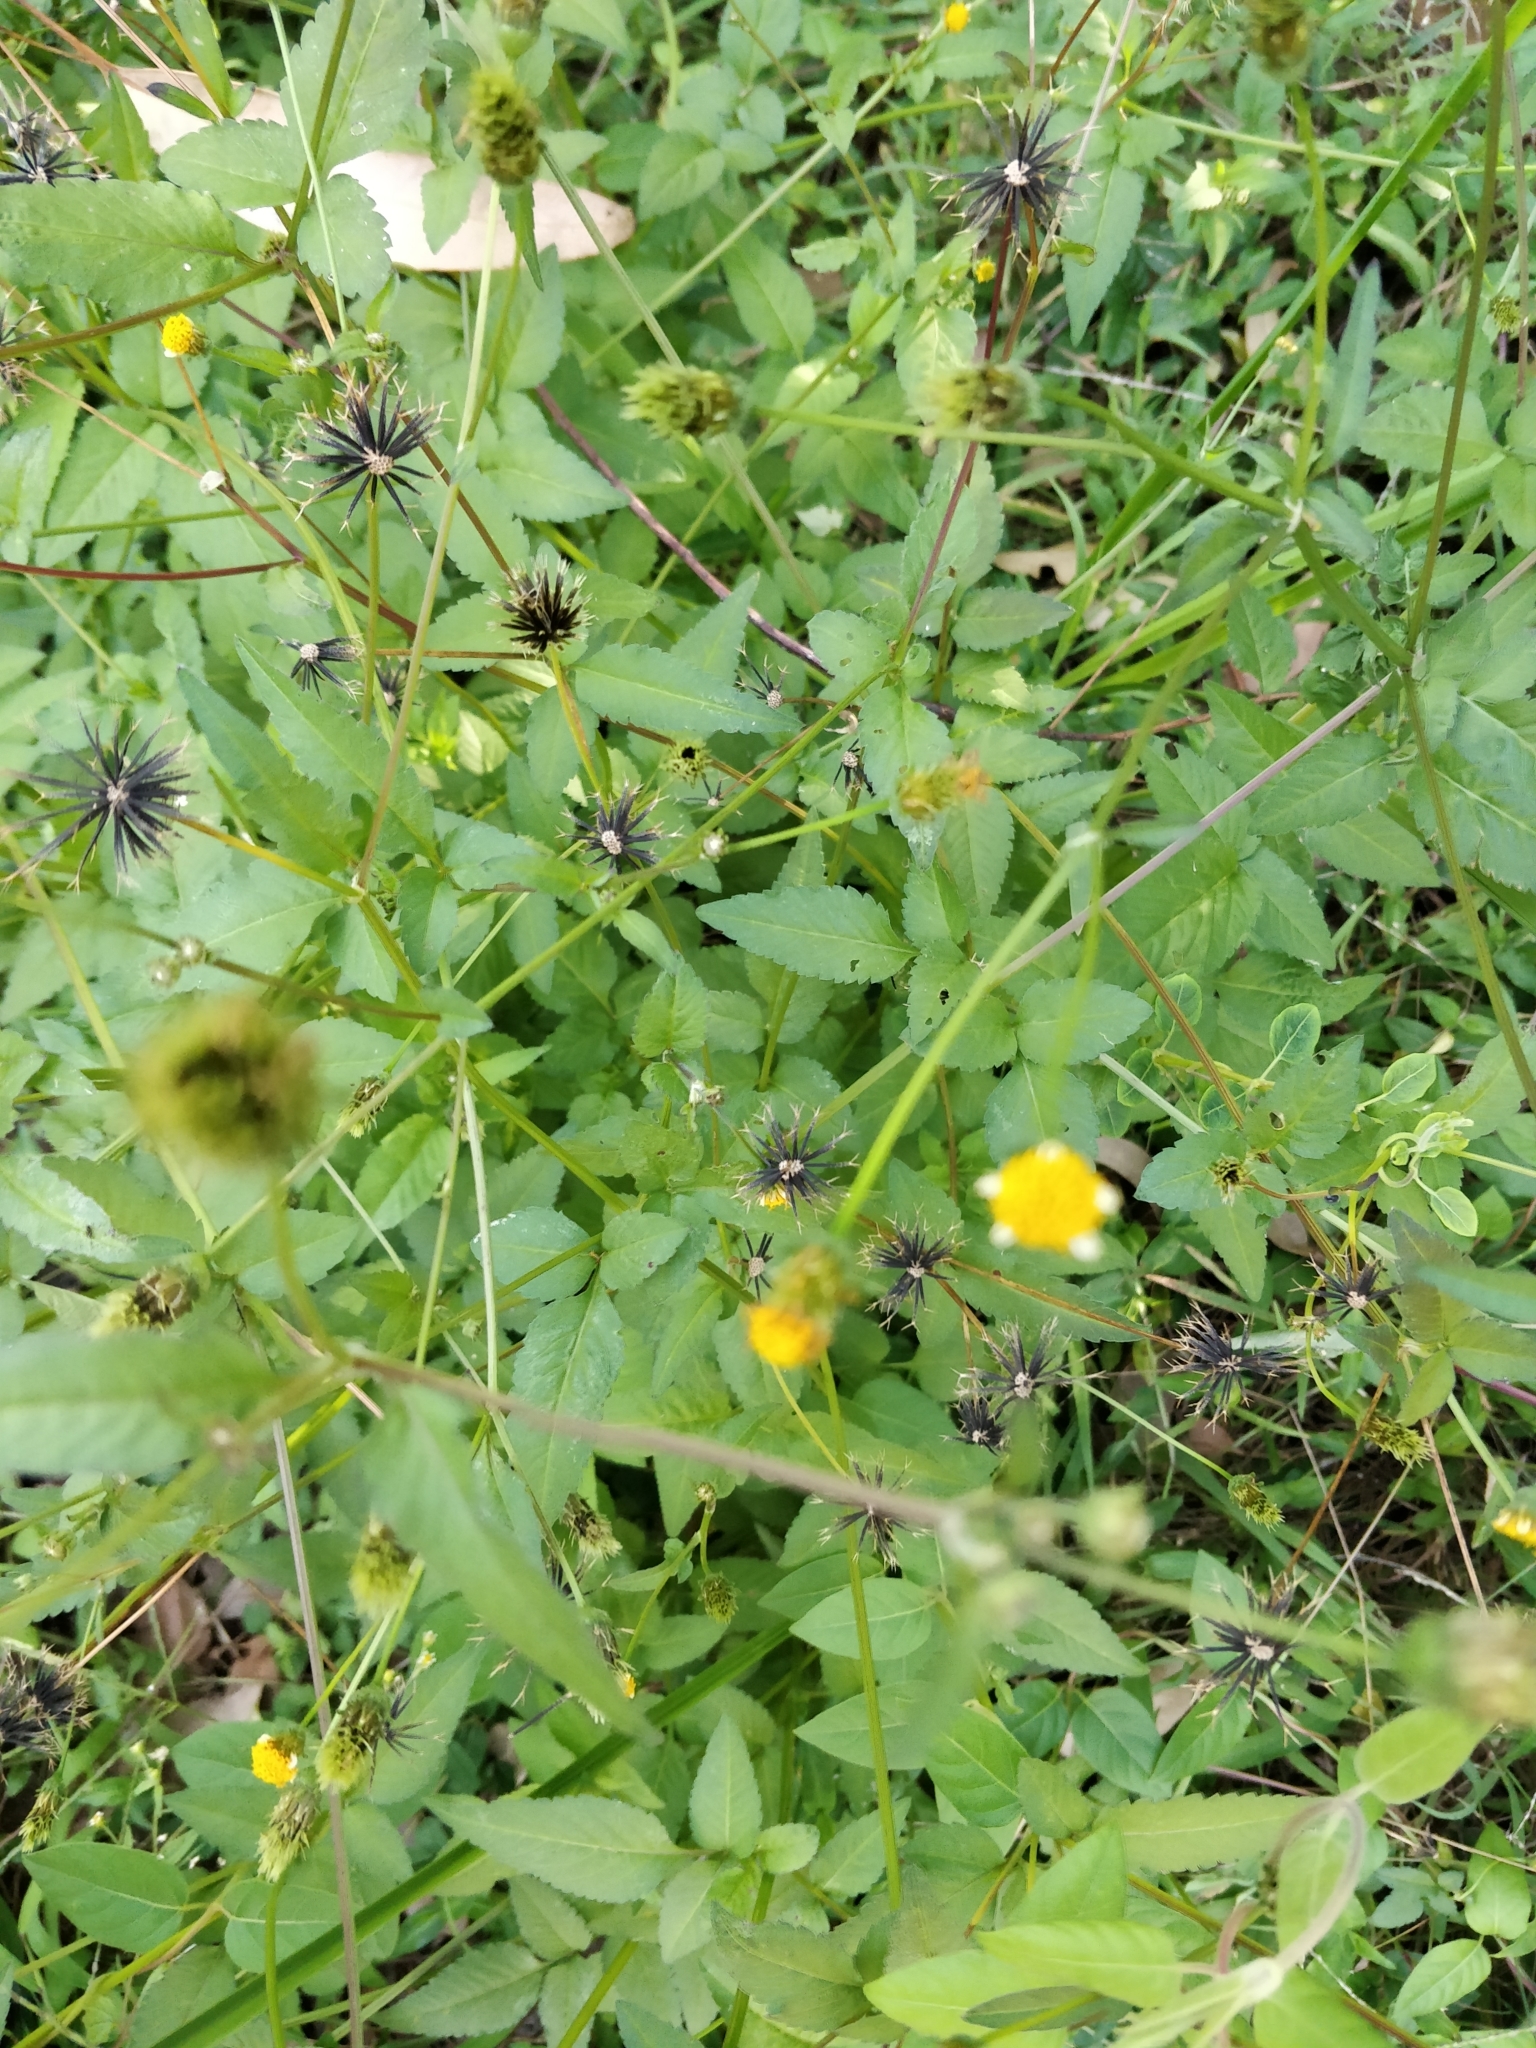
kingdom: Plantae
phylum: Tracheophyta
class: Magnoliopsida
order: Asterales
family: Asteraceae
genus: Bidens
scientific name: Bidens pilosa
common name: Black-jack
